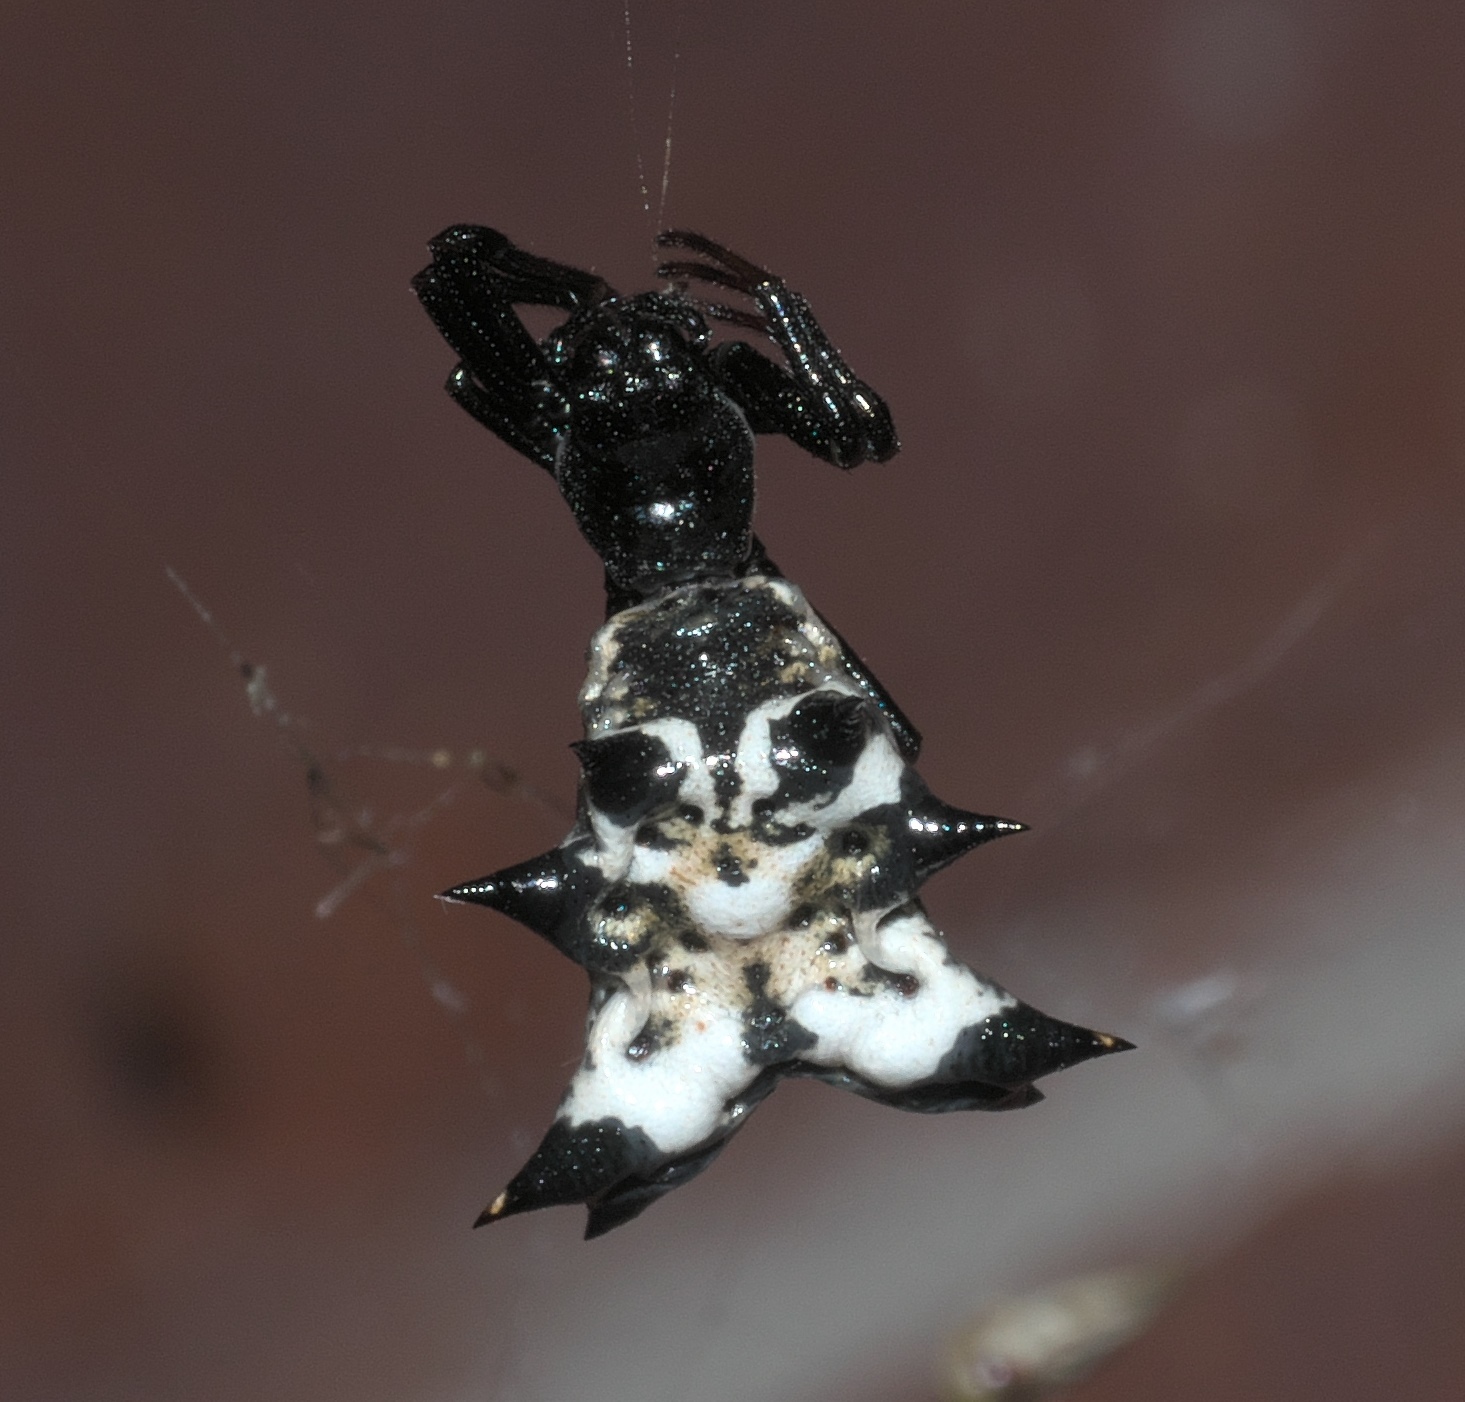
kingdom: Animalia
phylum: Arthropoda
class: Arachnida
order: Araneae
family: Araneidae
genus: Micrathena
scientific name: Micrathena gracilis
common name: Orb weavers
